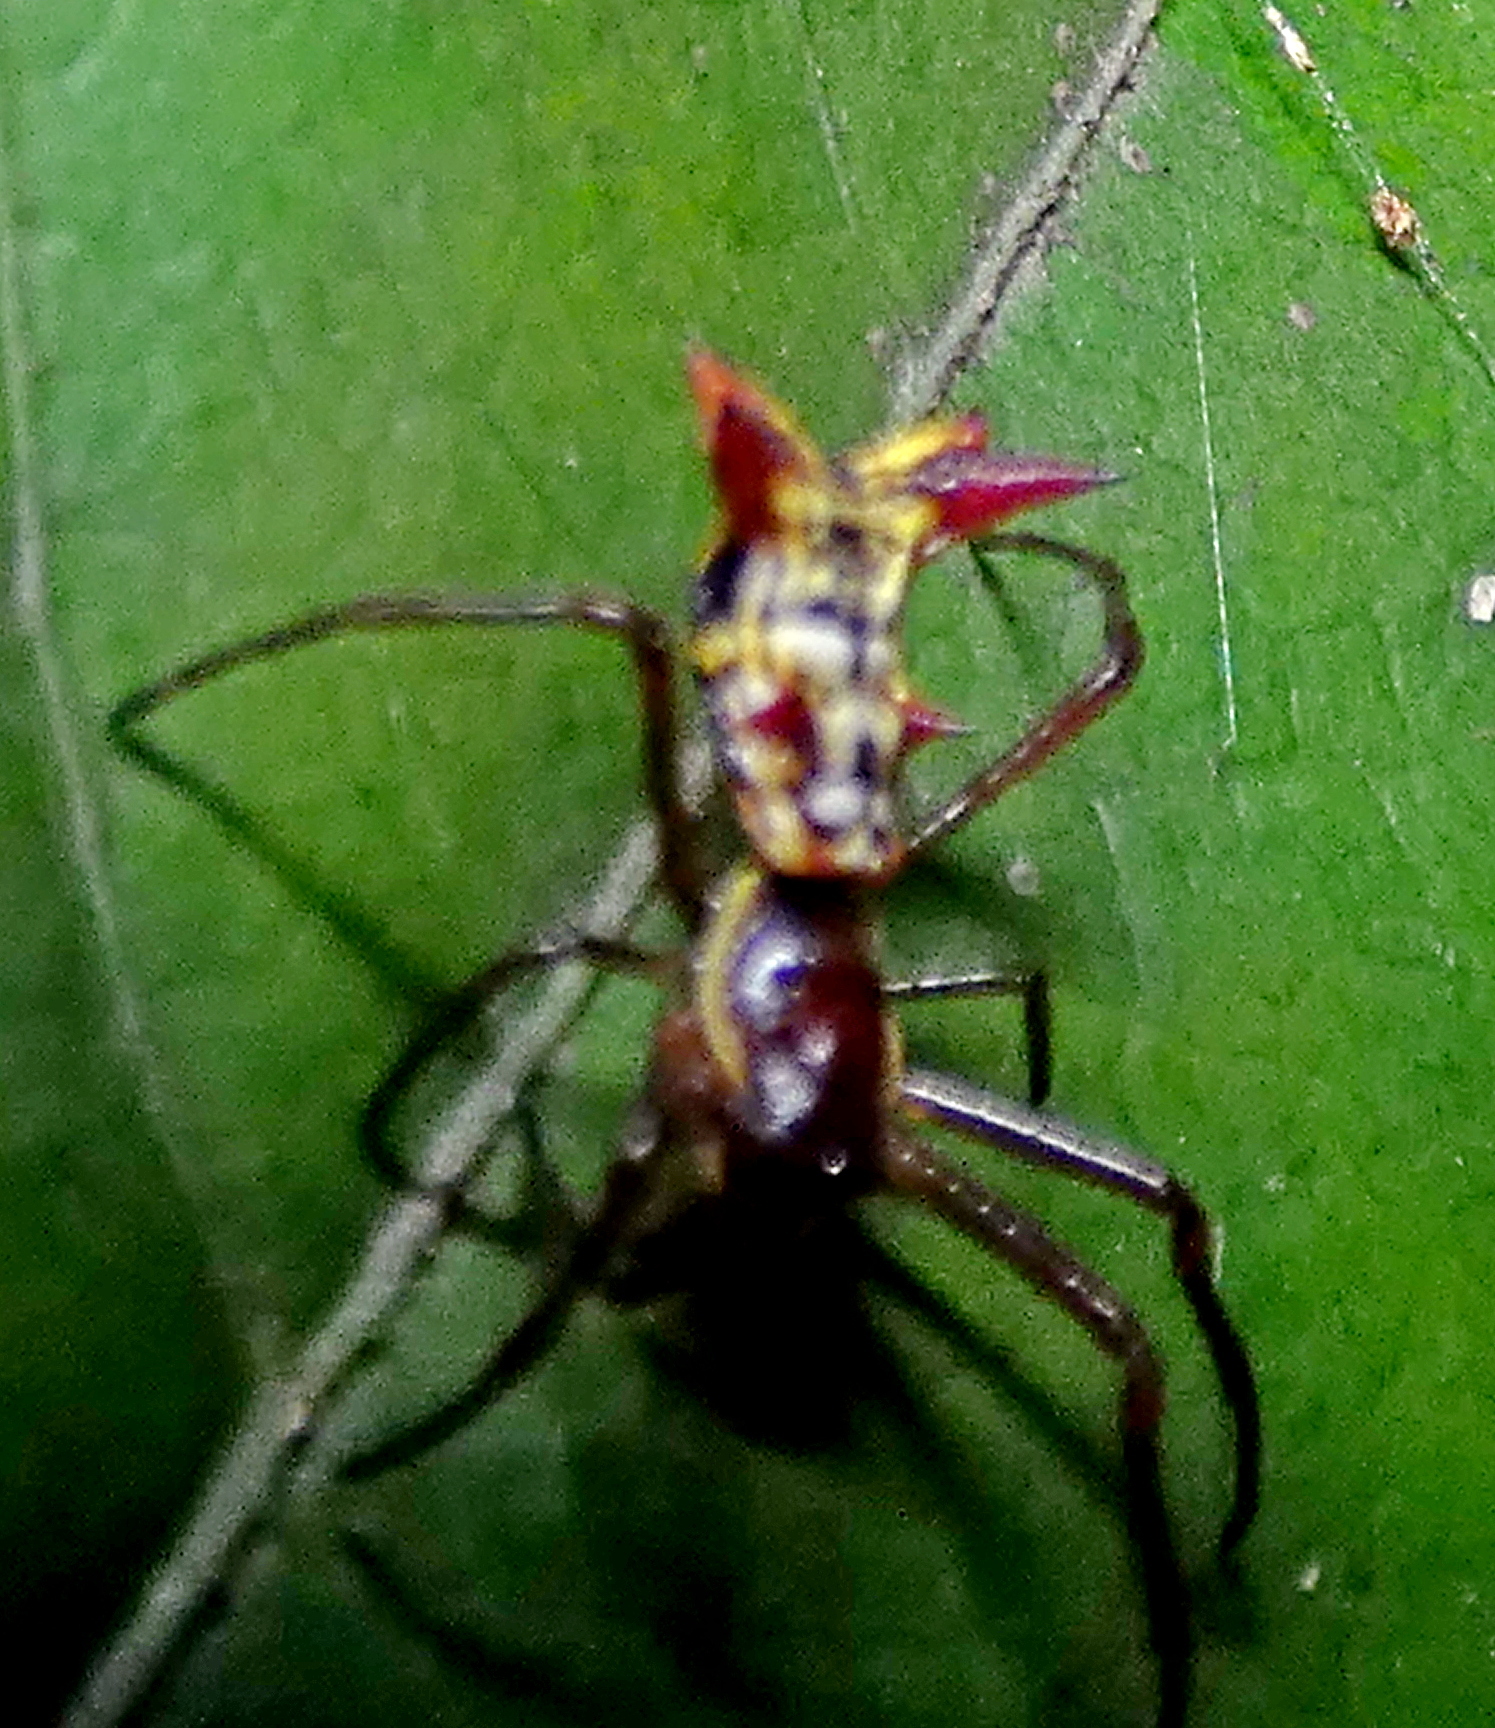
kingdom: Animalia
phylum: Arthropoda
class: Arachnida
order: Araneae
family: Araneidae
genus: Micrathena
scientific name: Micrathena fissispina
